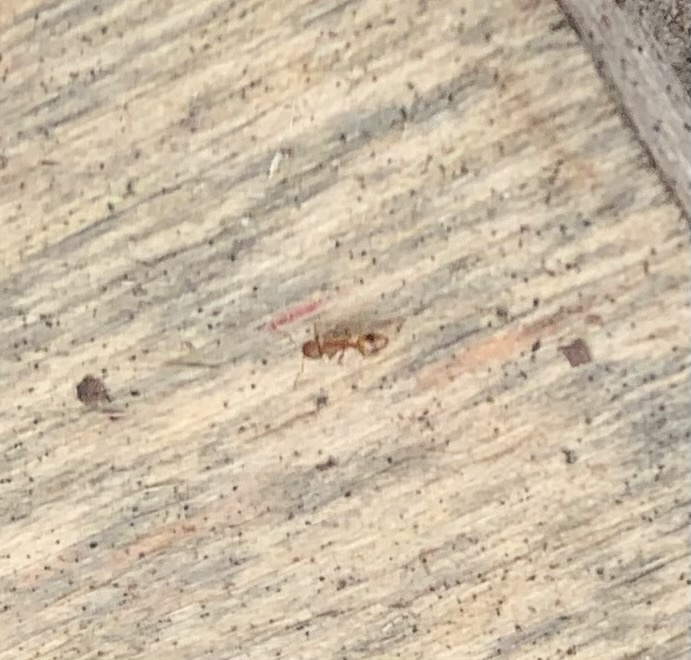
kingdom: Animalia
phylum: Arthropoda
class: Insecta
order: Hymenoptera
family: Formicidae
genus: Temnothorax
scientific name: Temnothorax
